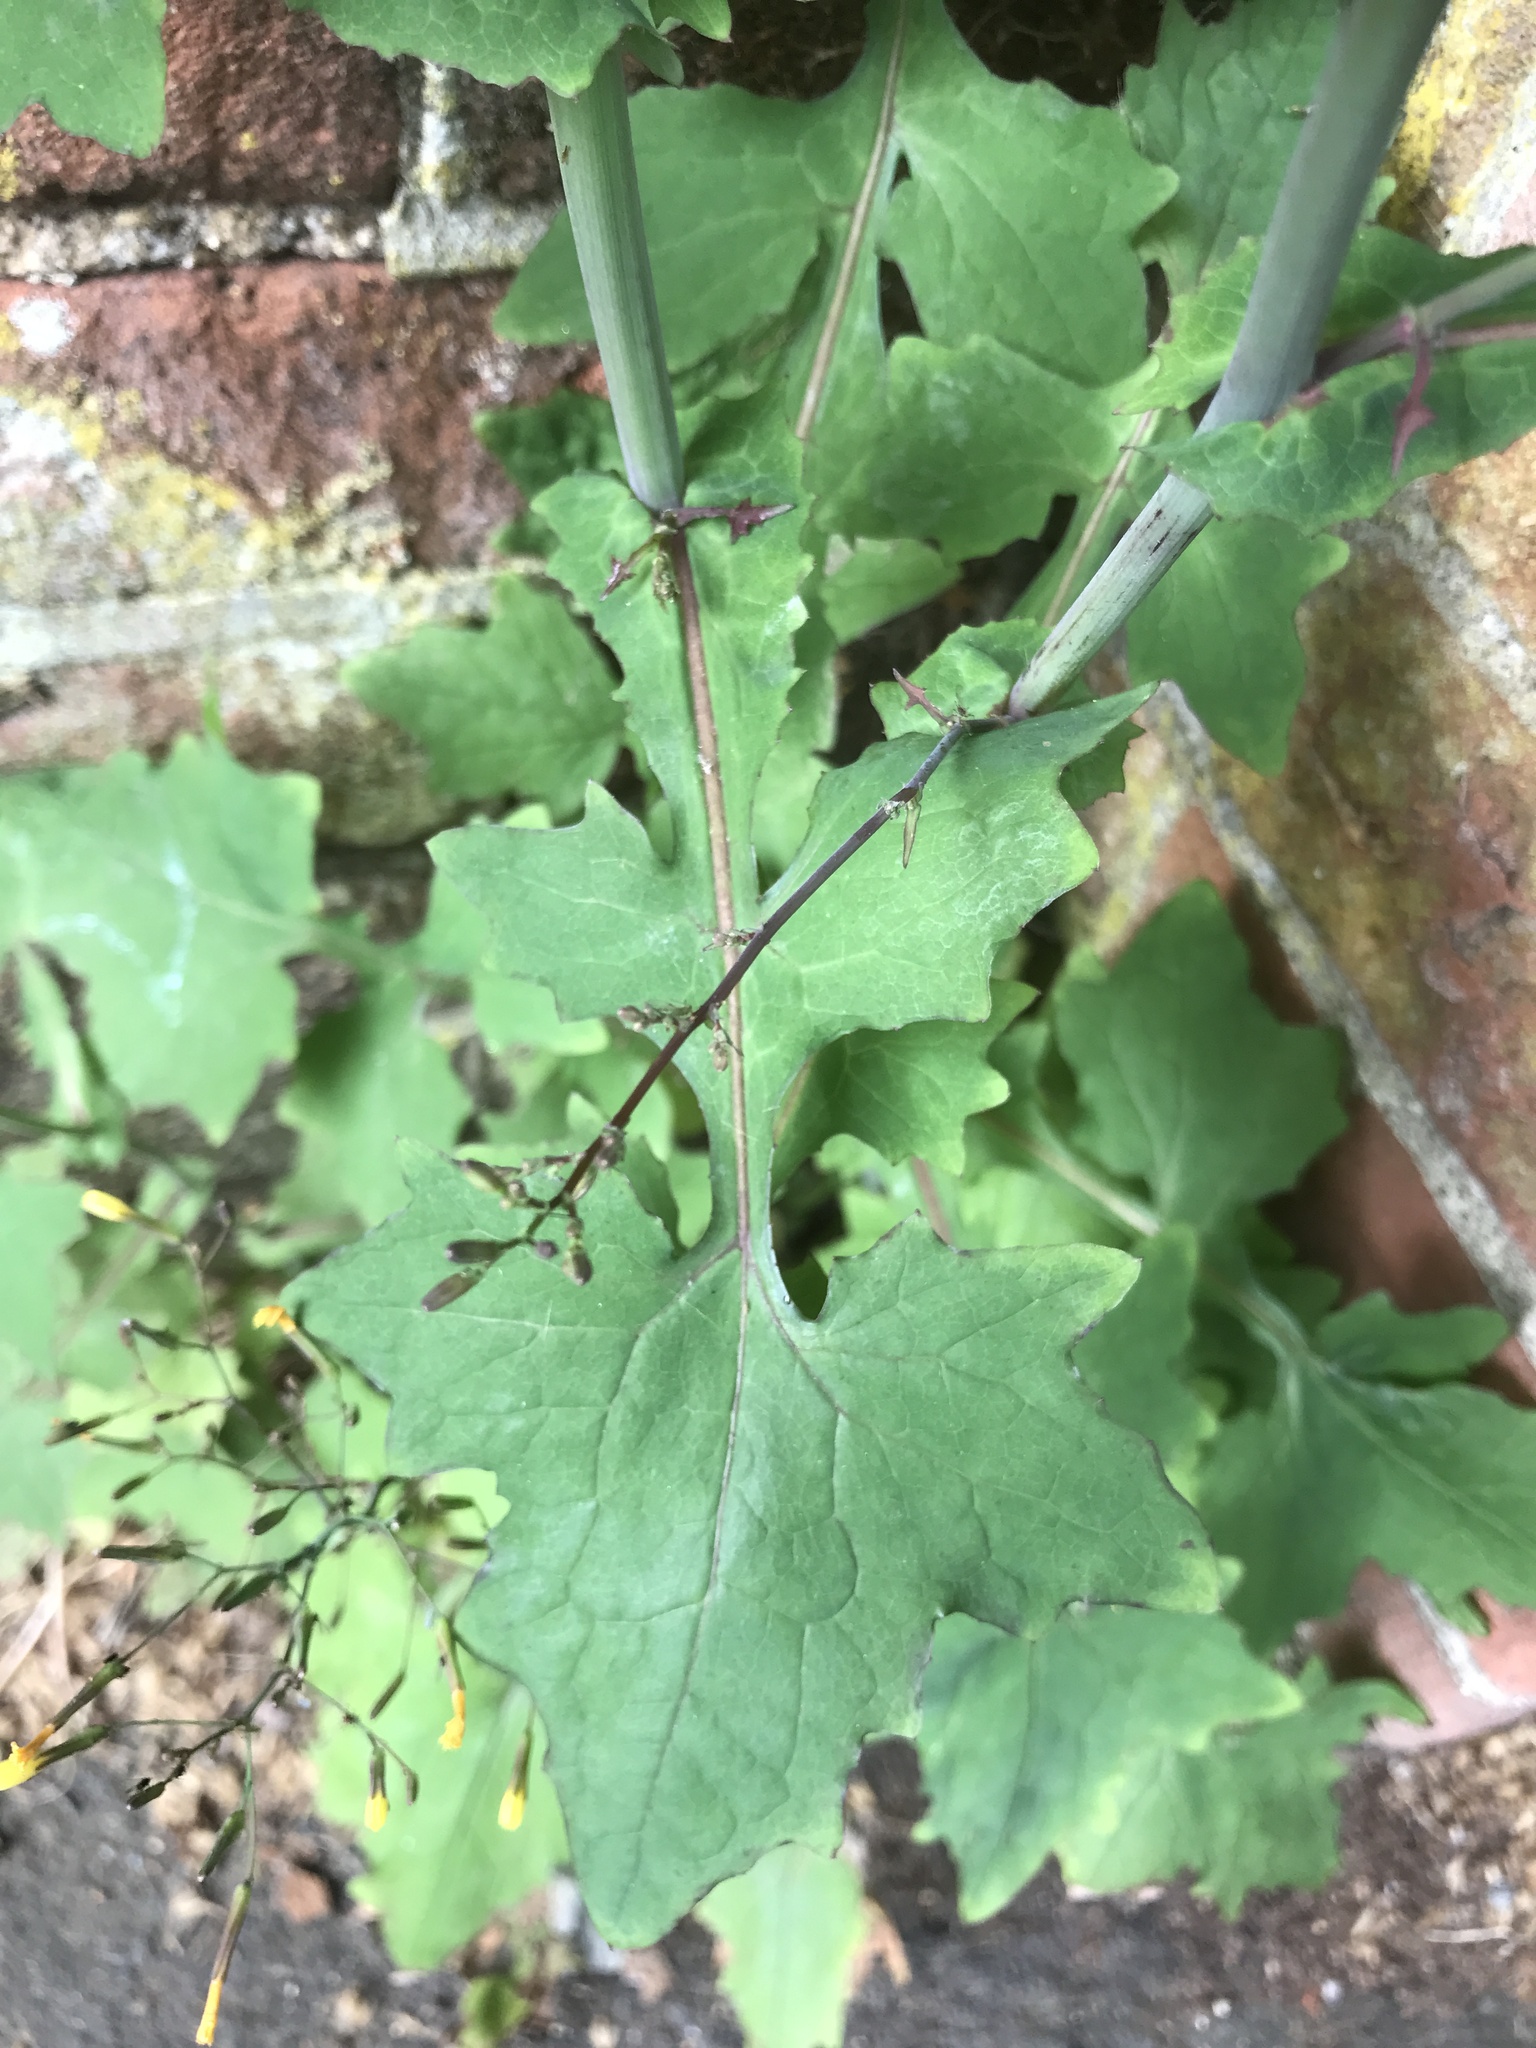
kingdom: Plantae
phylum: Tracheophyta
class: Magnoliopsida
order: Asterales
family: Asteraceae
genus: Mycelis
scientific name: Mycelis muralis
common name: Wall lettuce
